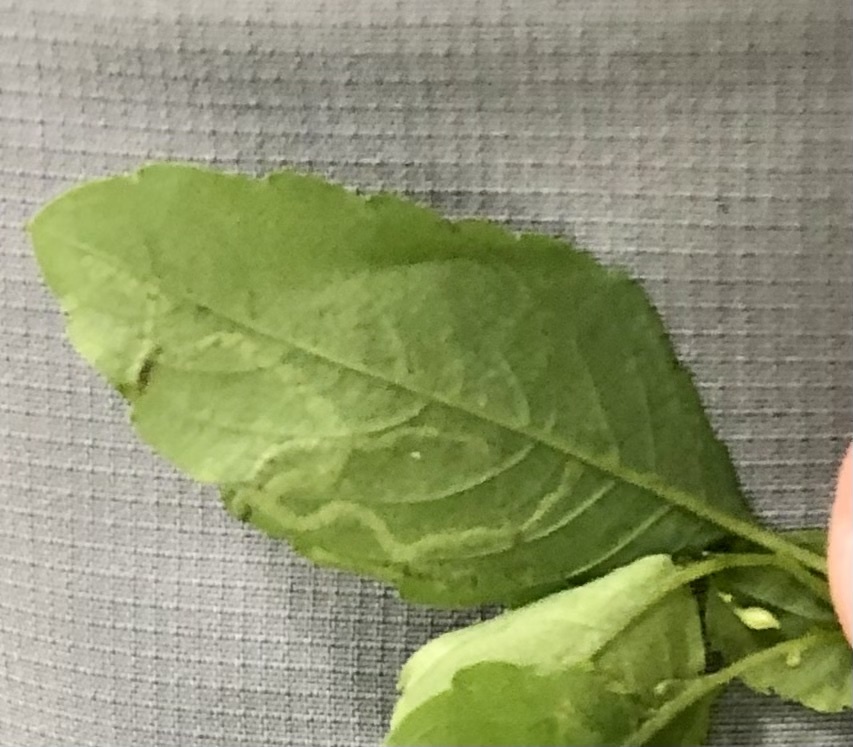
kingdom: Animalia
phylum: Arthropoda
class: Insecta
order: Diptera
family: Agromyzidae
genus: Phytoliriomyza
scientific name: Phytoliriomyza melampyga
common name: Jewelweed leaf-miner fly
